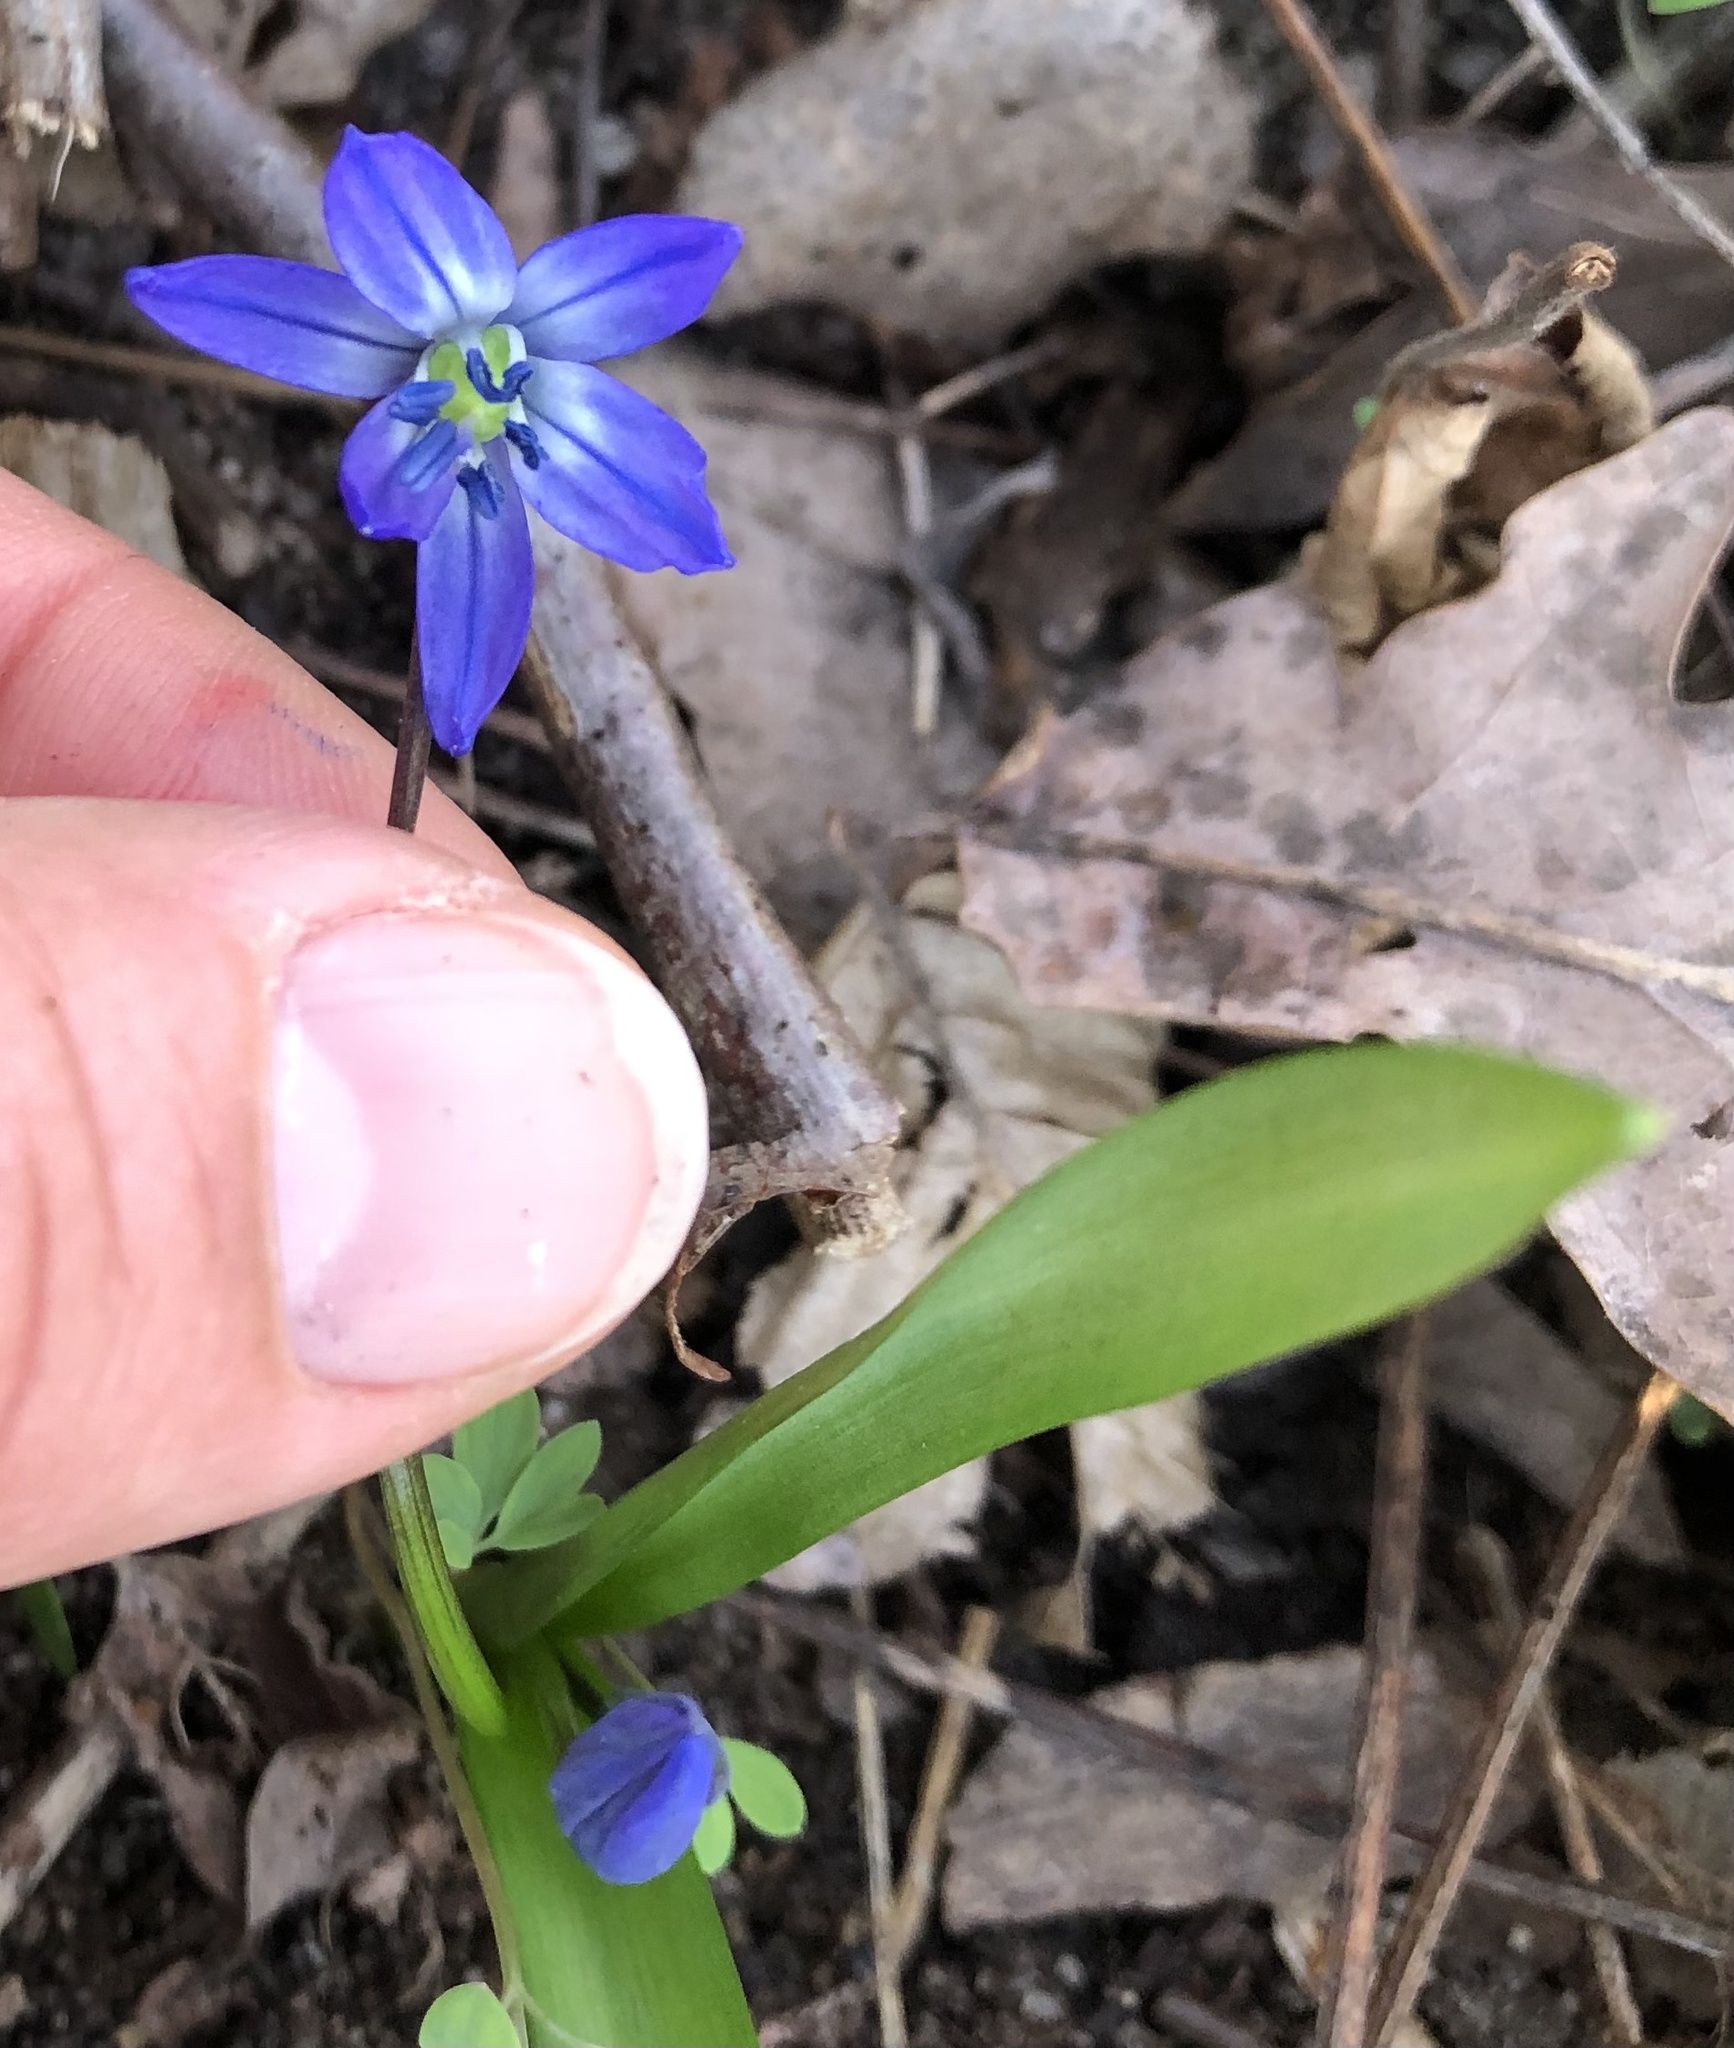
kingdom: Plantae
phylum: Tracheophyta
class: Liliopsida
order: Asparagales
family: Asparagaceae
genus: Scilla
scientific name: Scilla siberica
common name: Siberian squill
